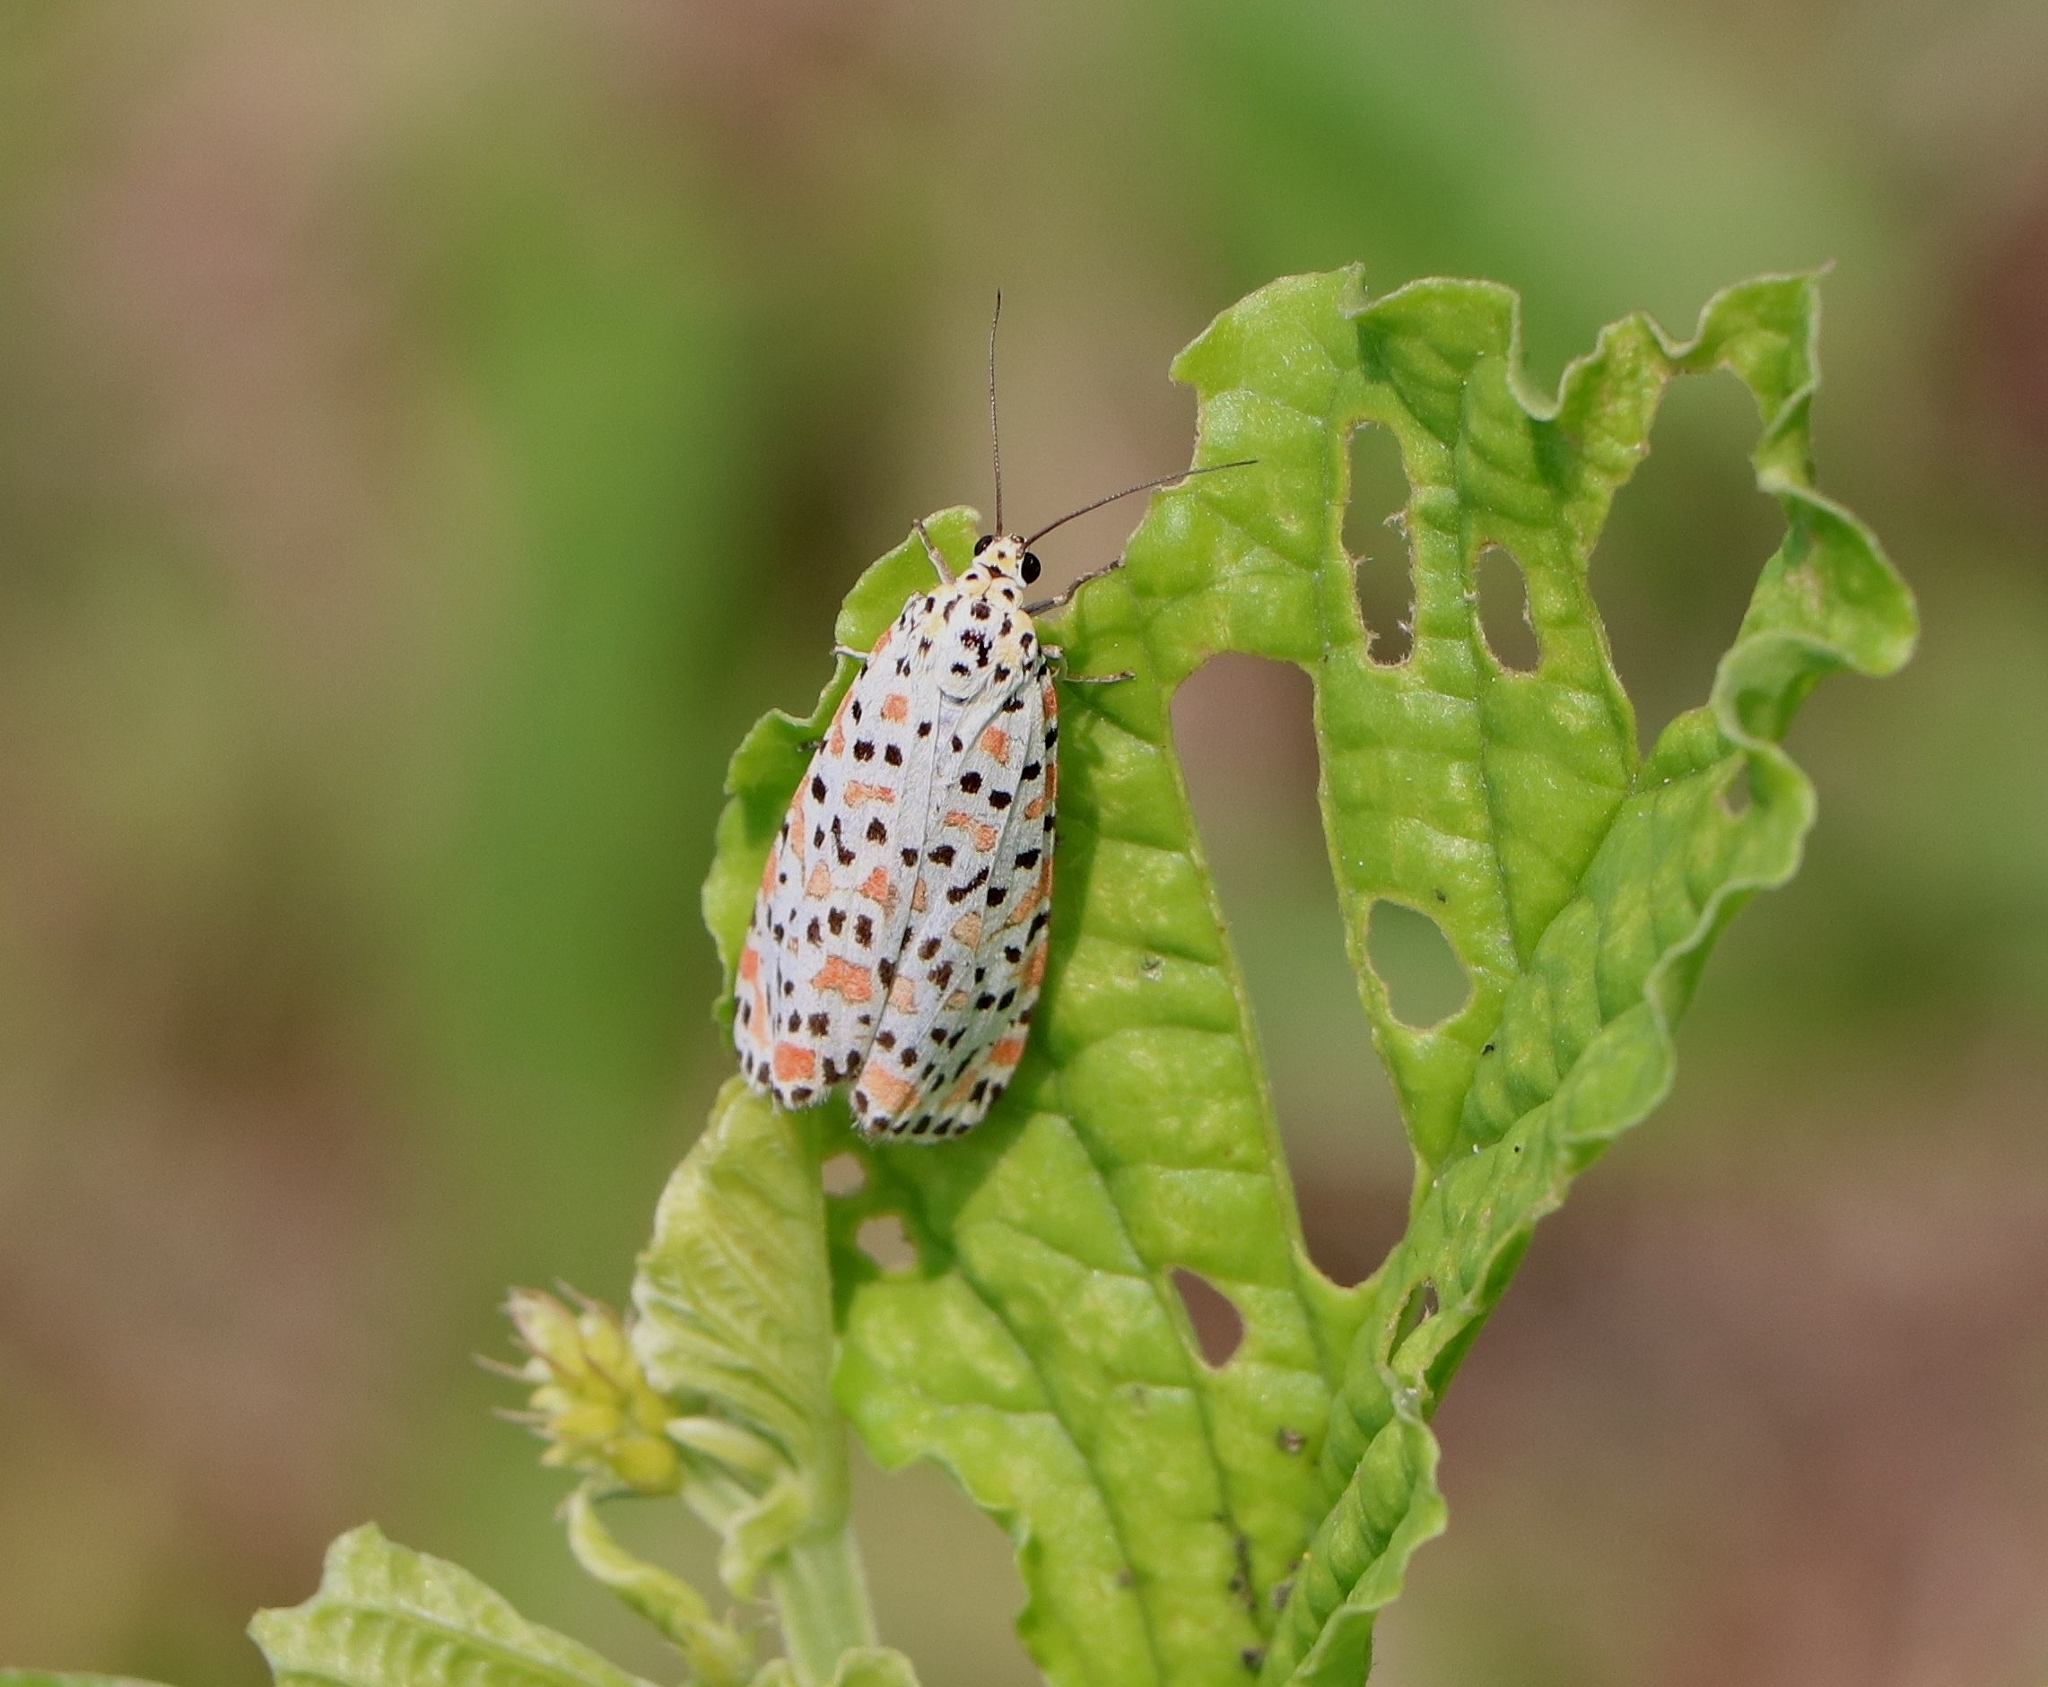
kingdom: Animalia
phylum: Arthropoda
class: Insecta
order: Lepidoptera
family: Erebidae
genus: Utetheisa
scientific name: Utetheisa lotrix
